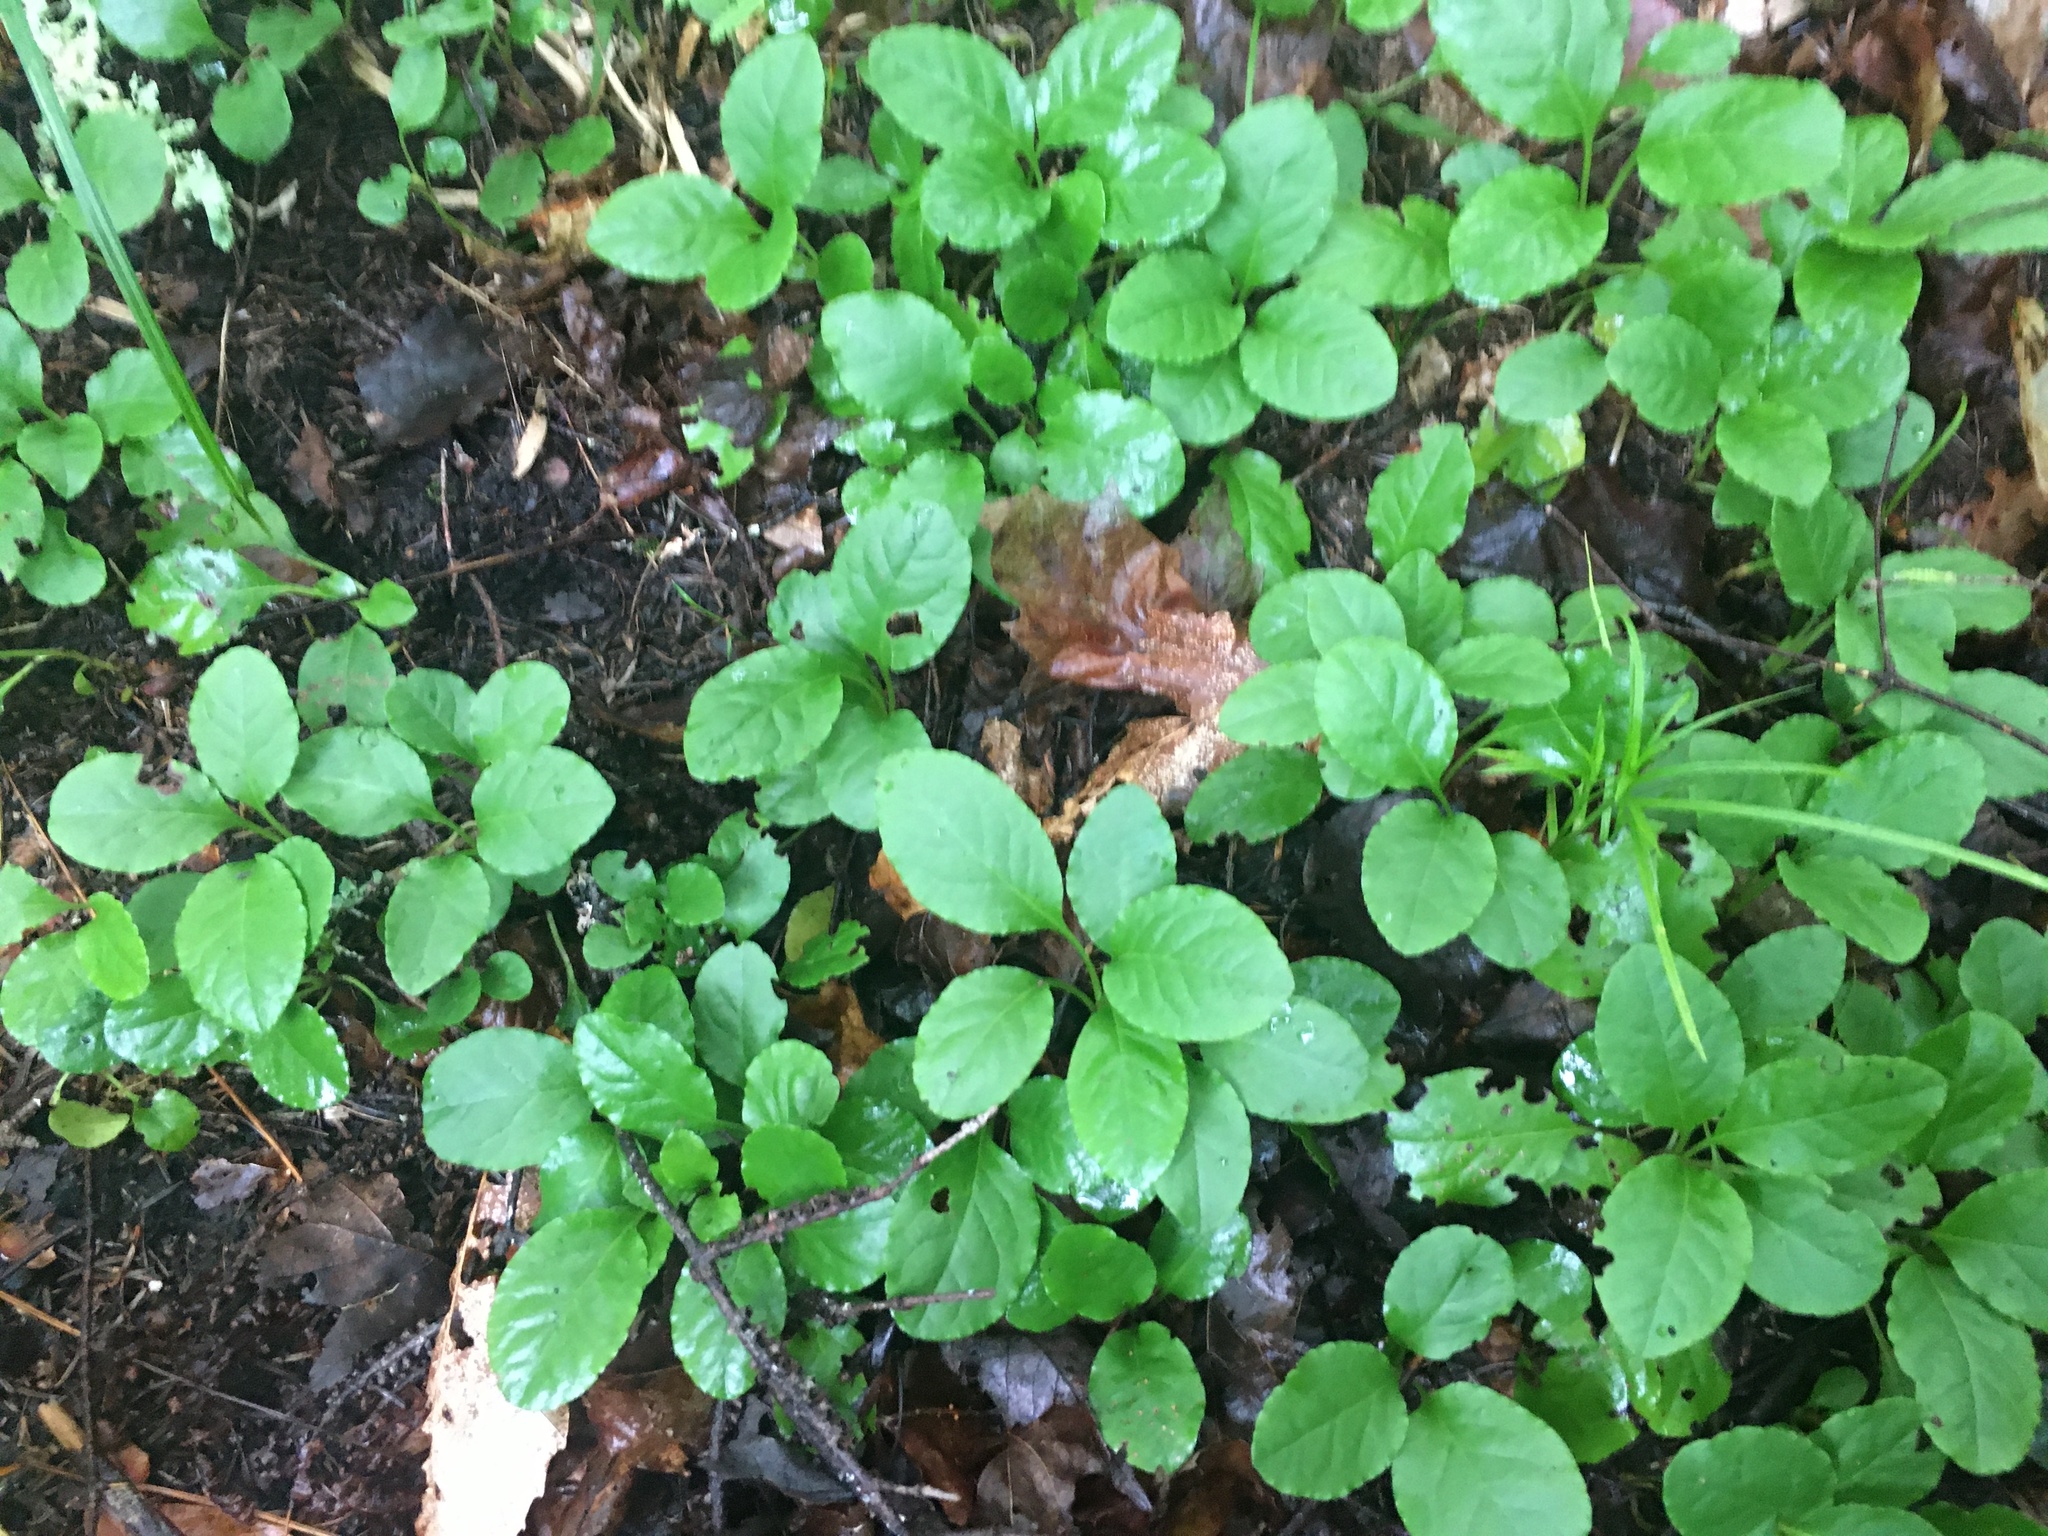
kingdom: Plantae
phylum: Tracheophyta
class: Magnoliopsida
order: Ericales
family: Ericaceae
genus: Pyrola
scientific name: Pyrola elliptica
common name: Shinleaf
